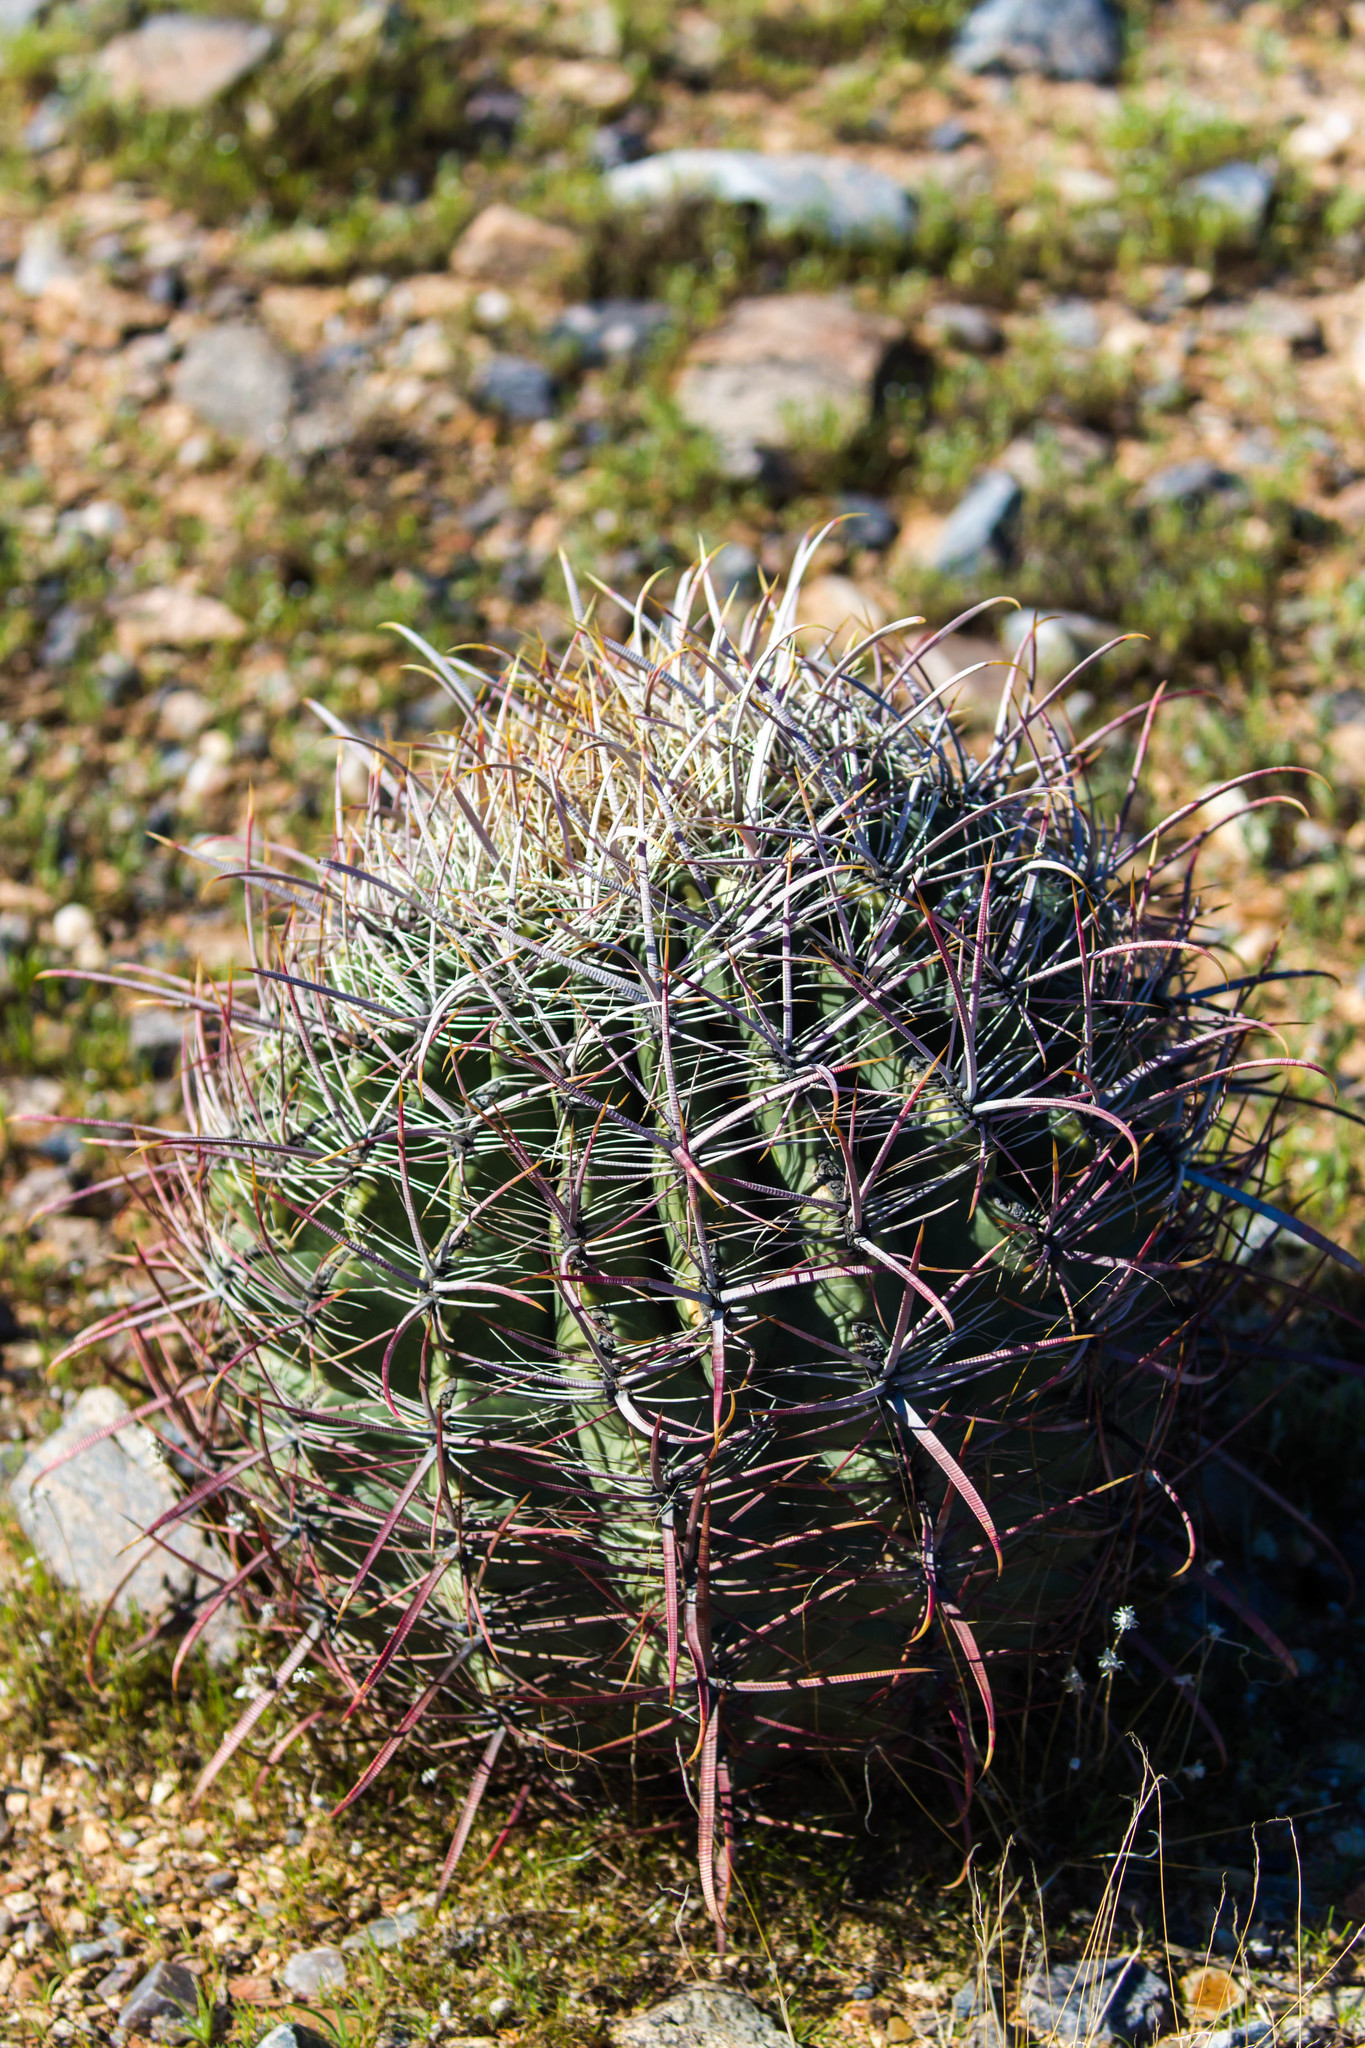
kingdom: Plantae
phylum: Tracheophyta
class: Magnoliopsida
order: Caryophyllales
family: Cactaceae
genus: Ferocactus
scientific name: Ferocactus cylindraceus
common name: California barrel cactus
